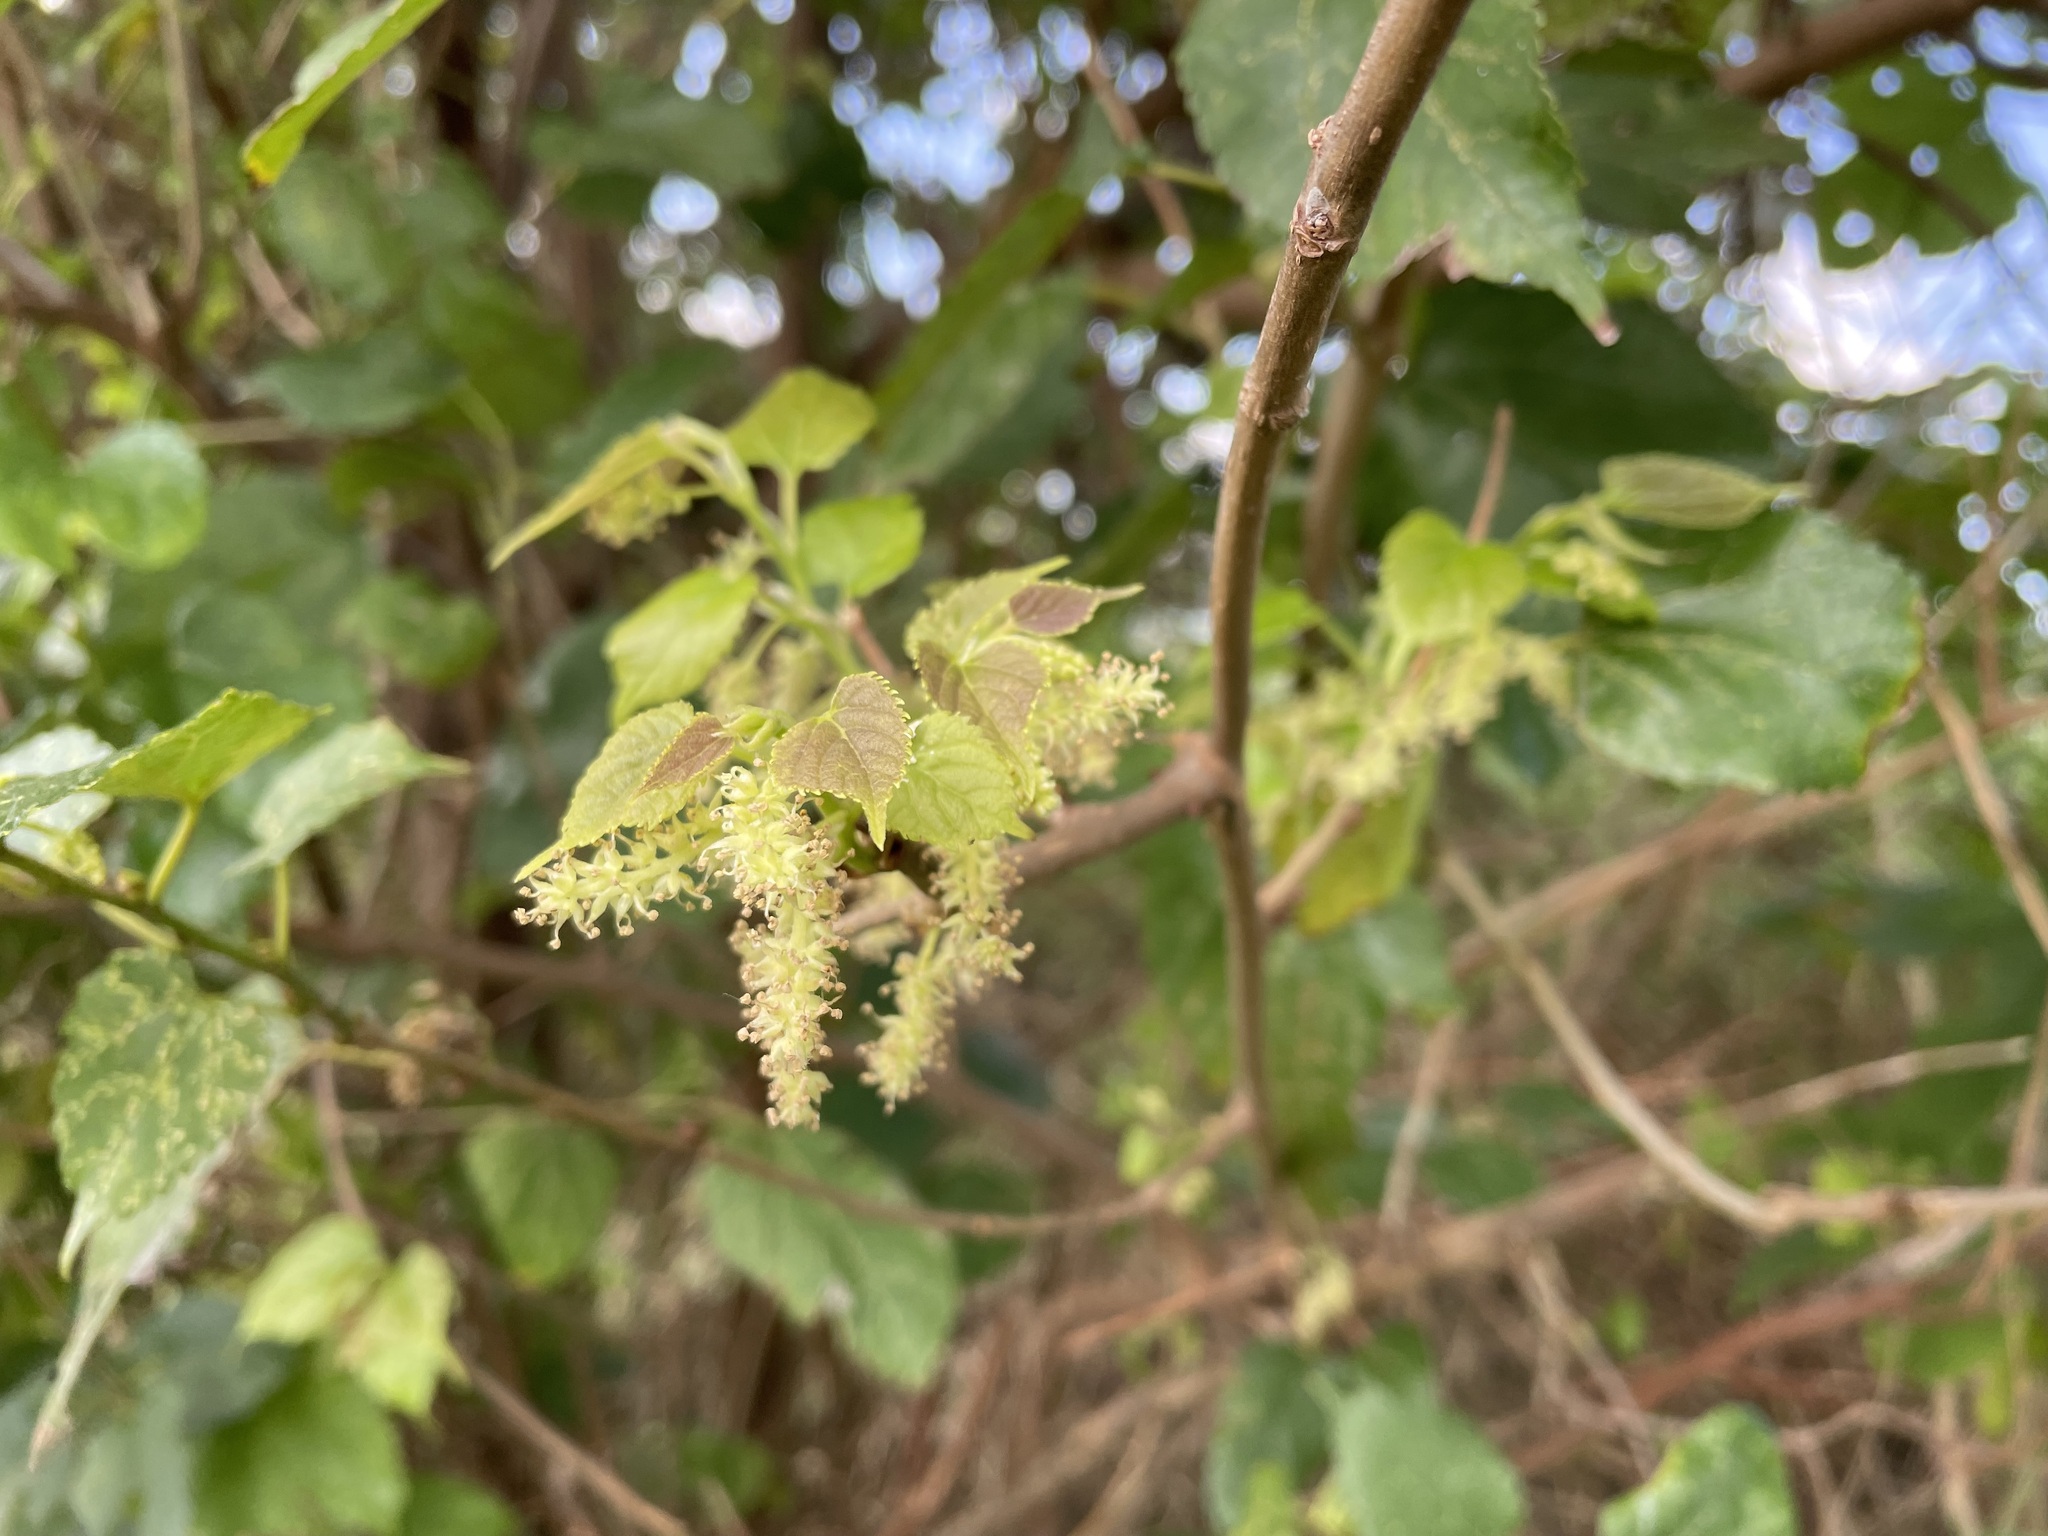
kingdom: Plantae
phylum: Tracheophyta
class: Magnoliopsida
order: Rosales
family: Moraceae
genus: Morus
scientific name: Morus indica
